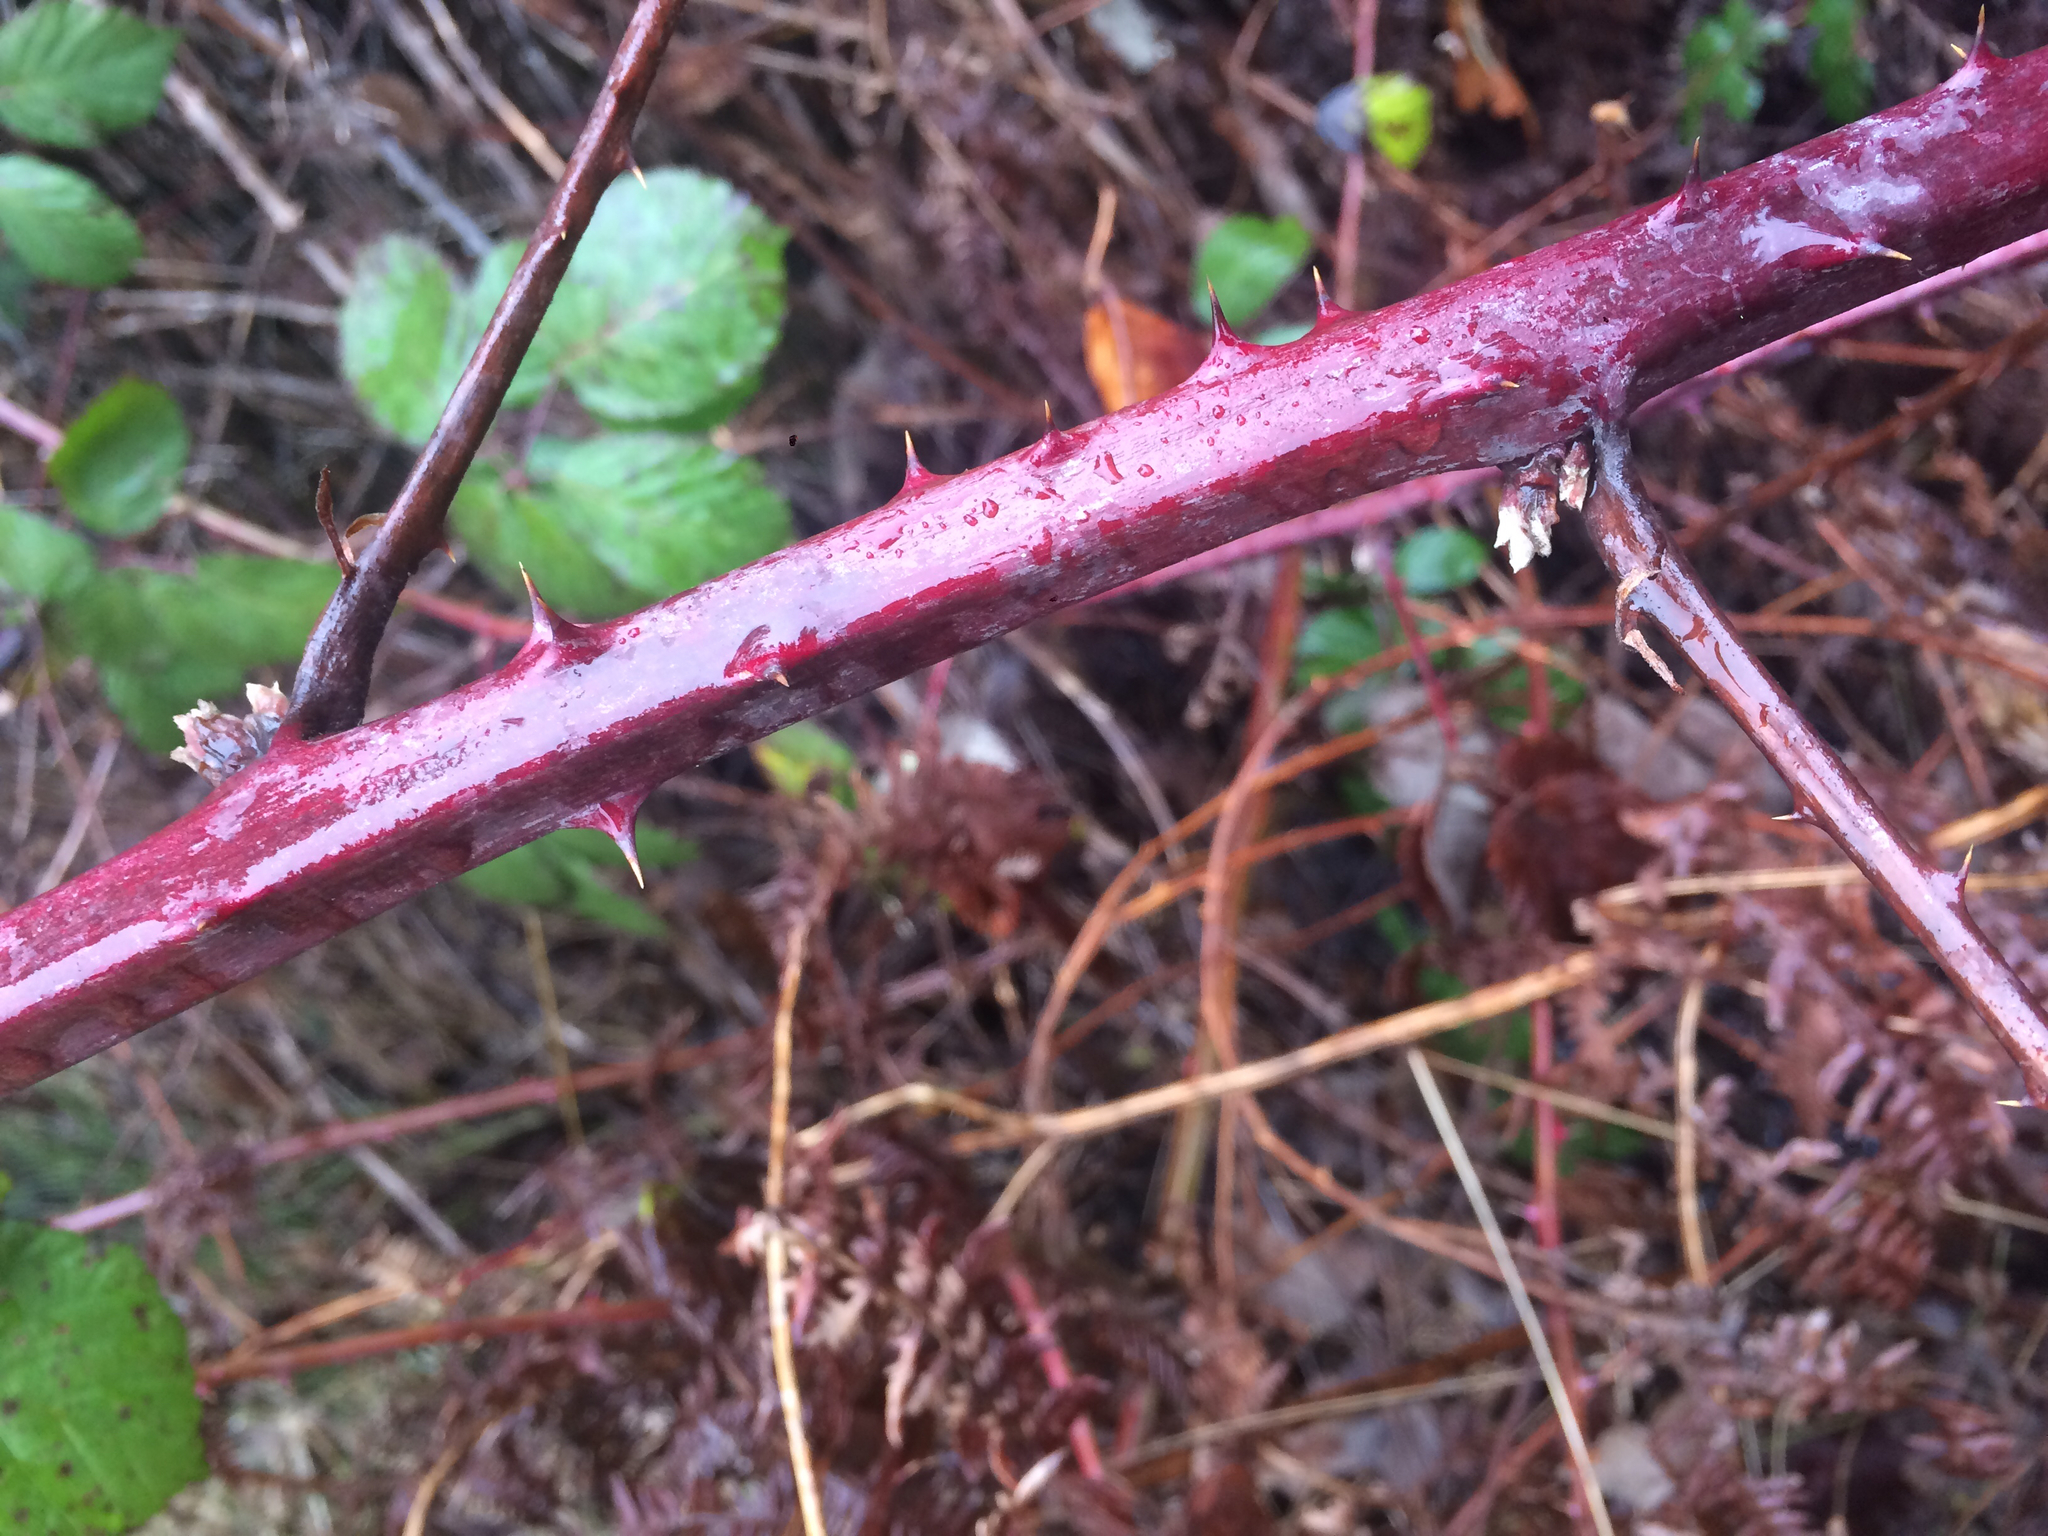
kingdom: Plantae
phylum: Tracheophyta
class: Magnoliopsida
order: Rosales
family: Rosaceae
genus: Rubus
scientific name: Rubus armeniacus
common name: Himalayan blackberry
